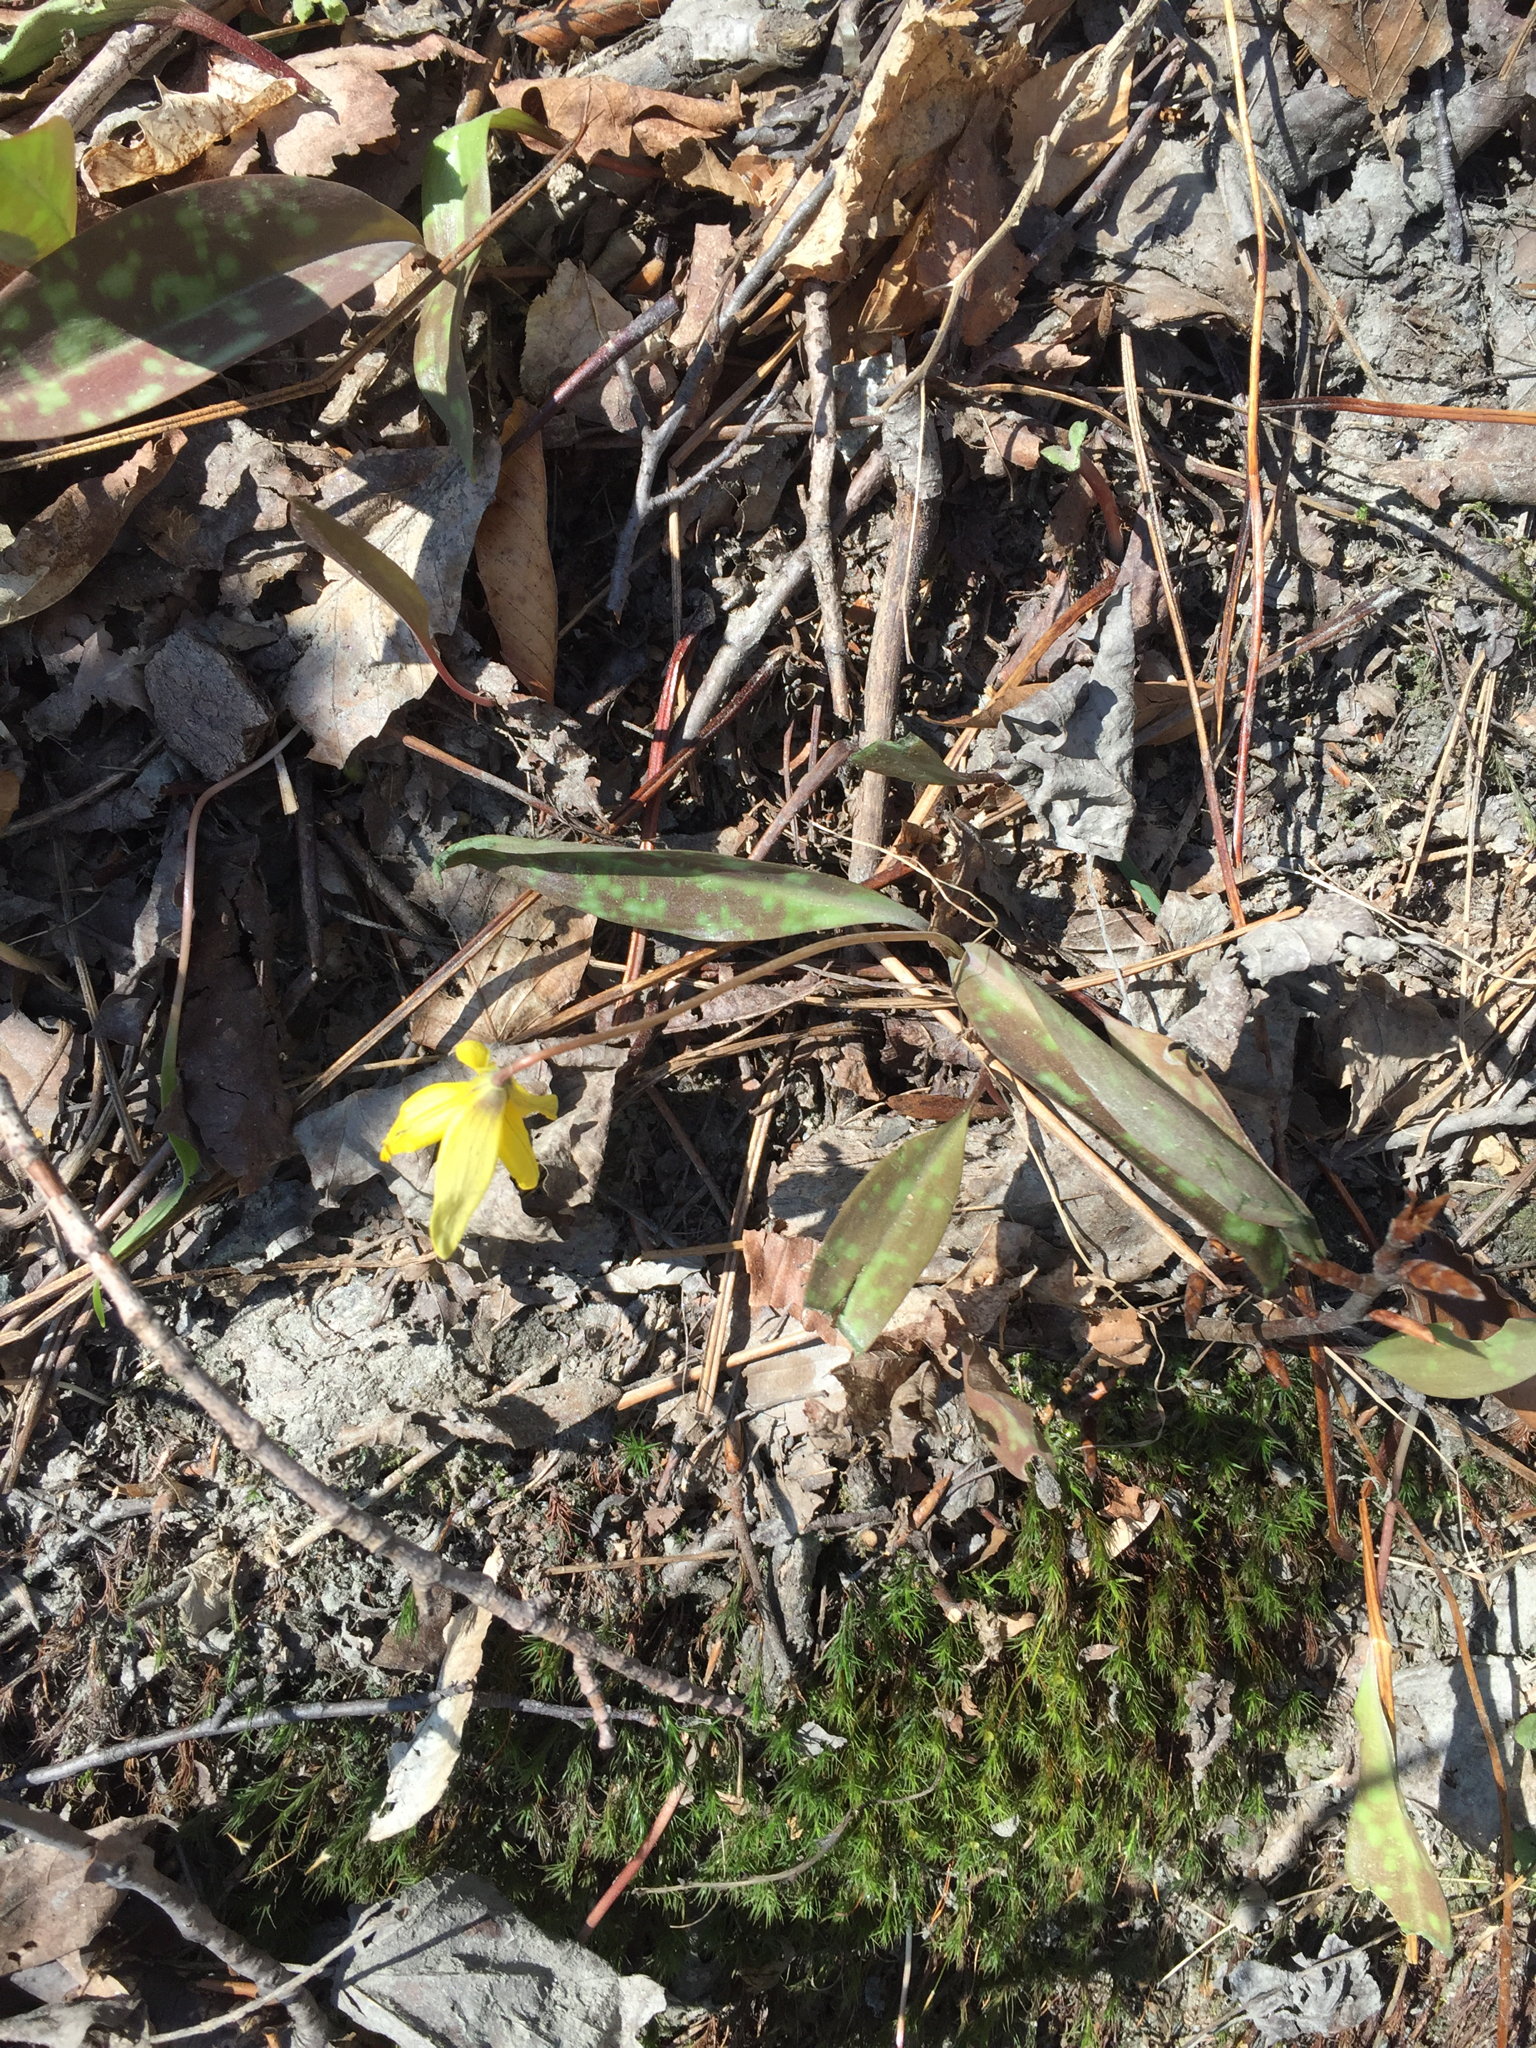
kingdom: Plantae
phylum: Tracheophyta
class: Liliopsida
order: Liliales
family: Liliaceae
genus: Erythronium
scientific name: Erythronium americanum
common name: Yellow adder's-tongue
